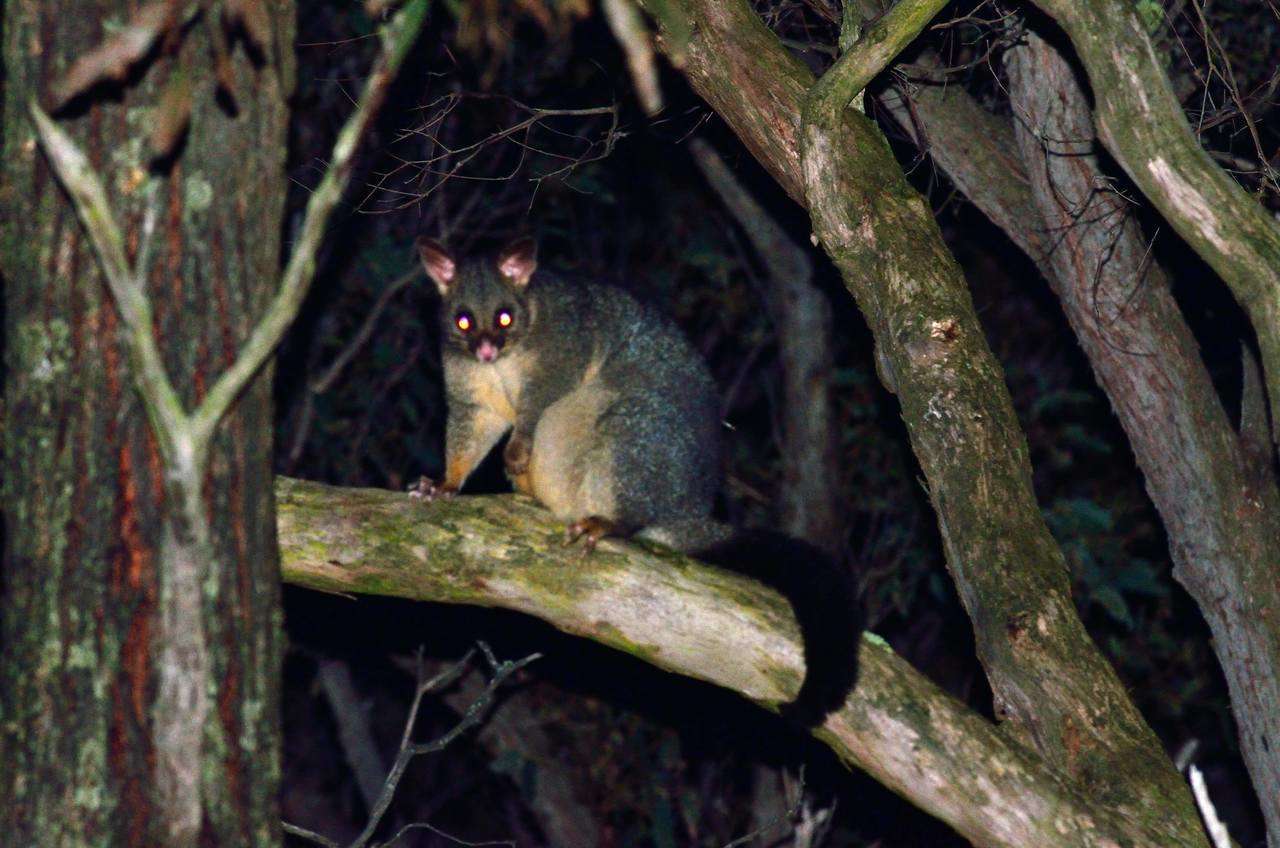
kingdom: Animalia
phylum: Chordata
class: Mammalia
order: Diprotodontia
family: Phalangeridae
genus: Trichosurus
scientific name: Trichosurus vulpecula
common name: Common brushtail
